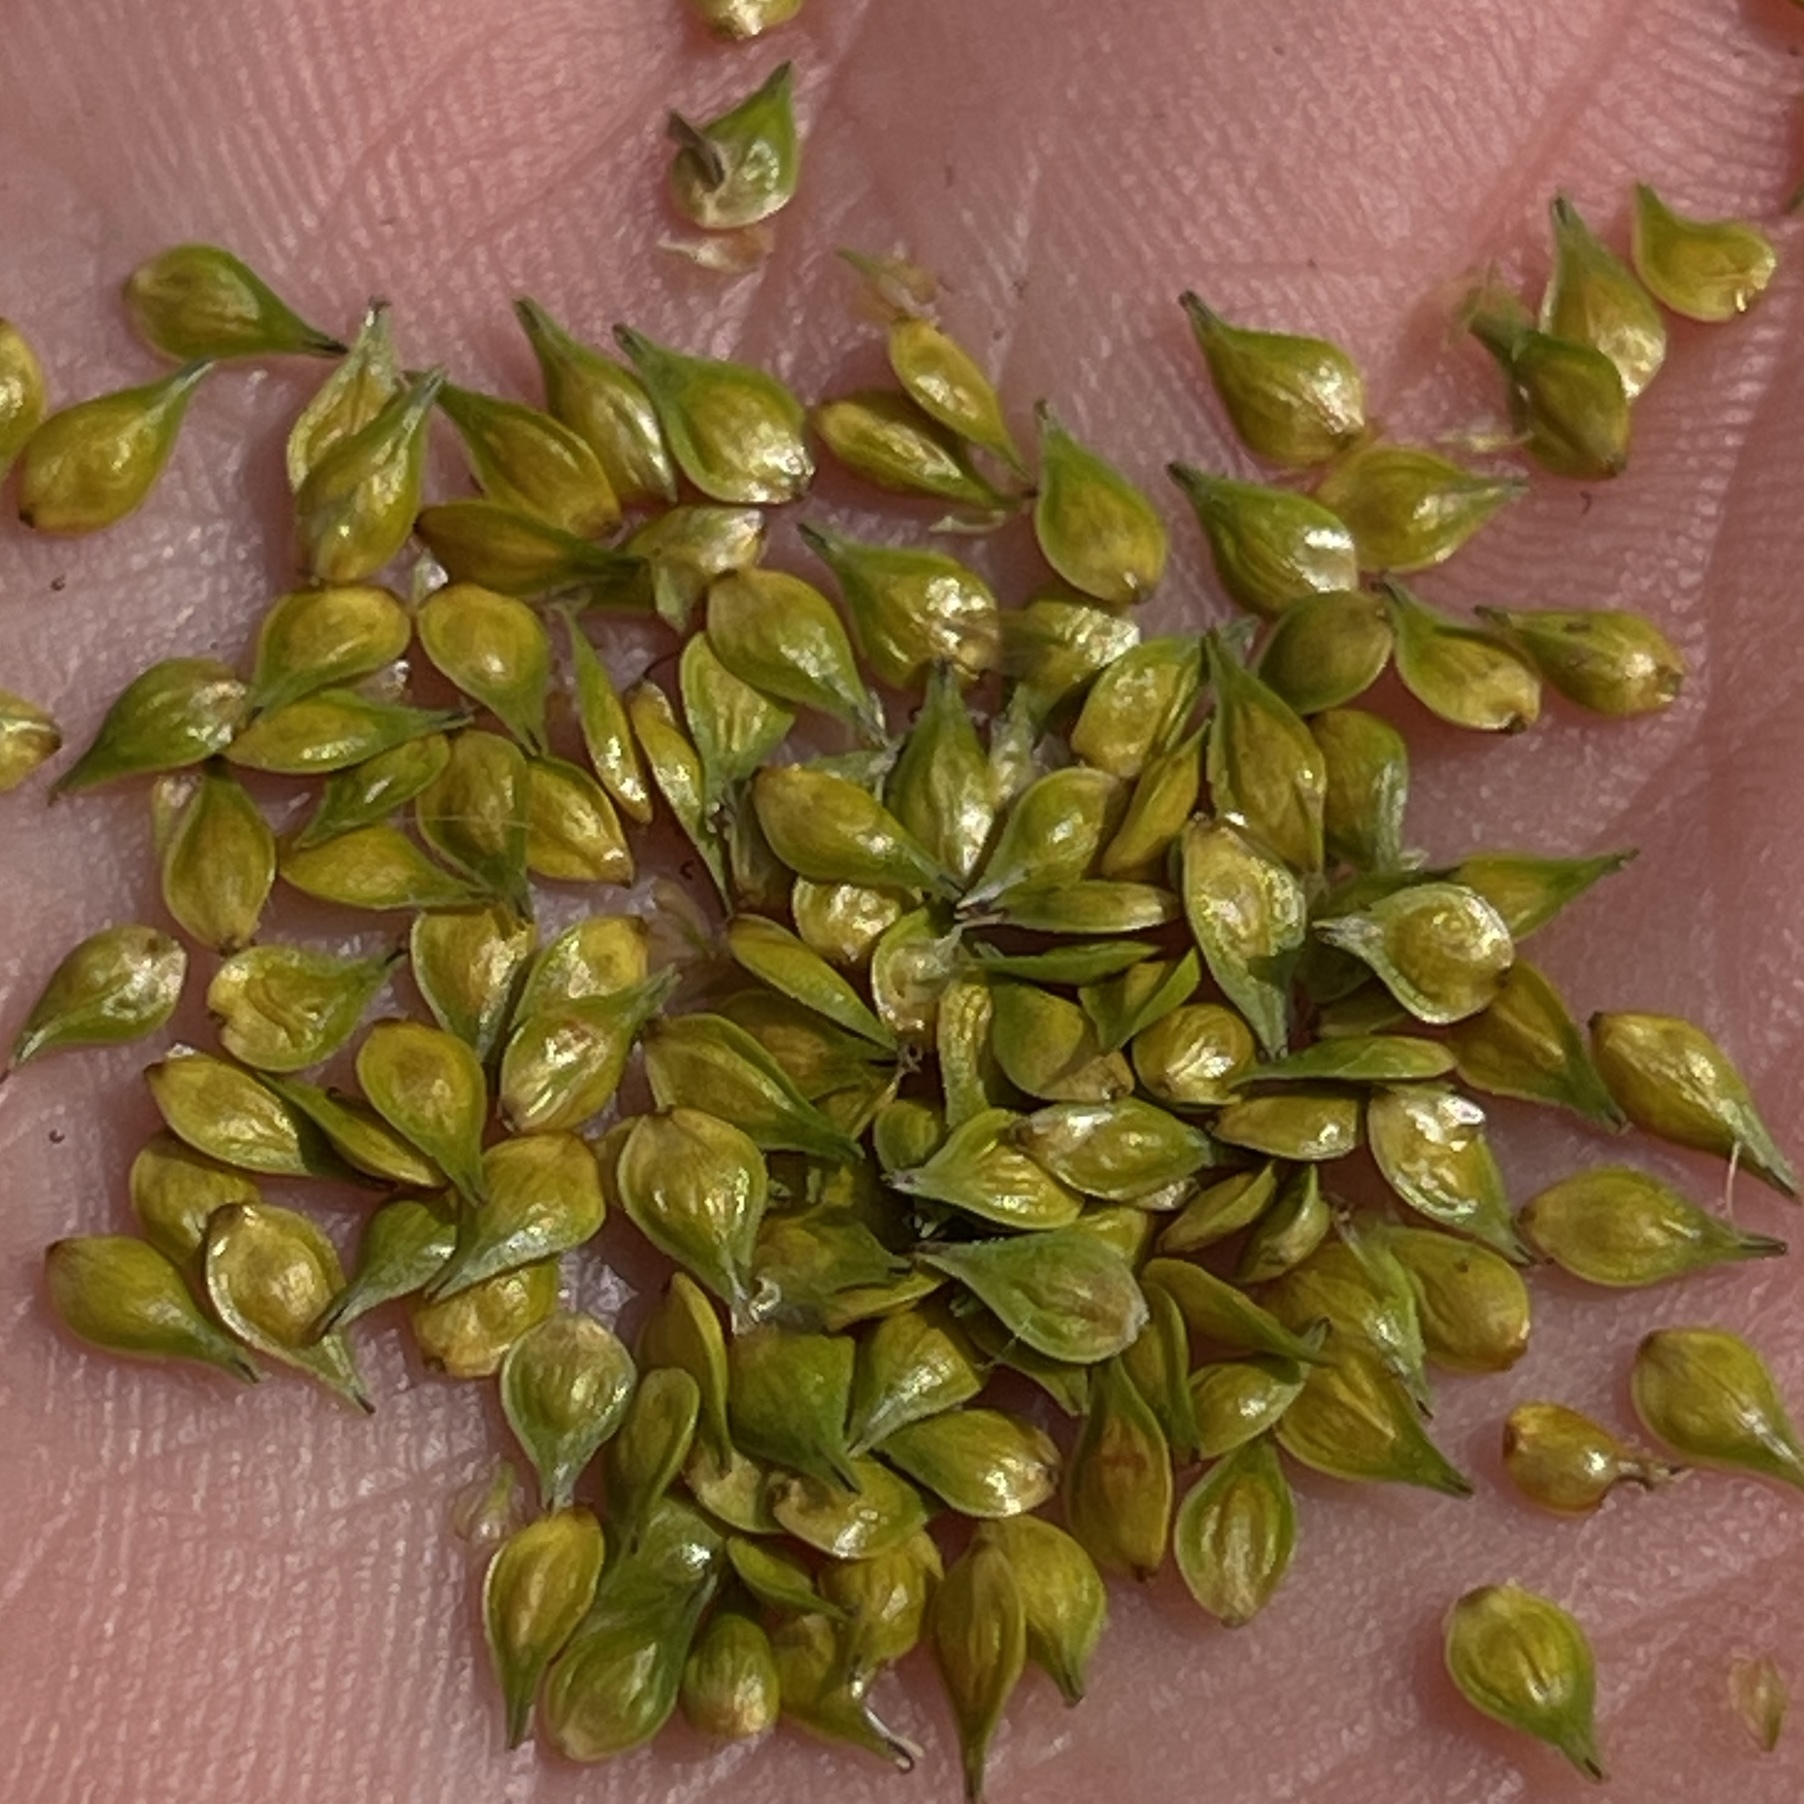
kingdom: Plantae
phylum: Tracheophyta
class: Liliopsida
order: Poales
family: Cyperaceae
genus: Carex
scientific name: Carex sparganioides
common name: Burreed sedge
